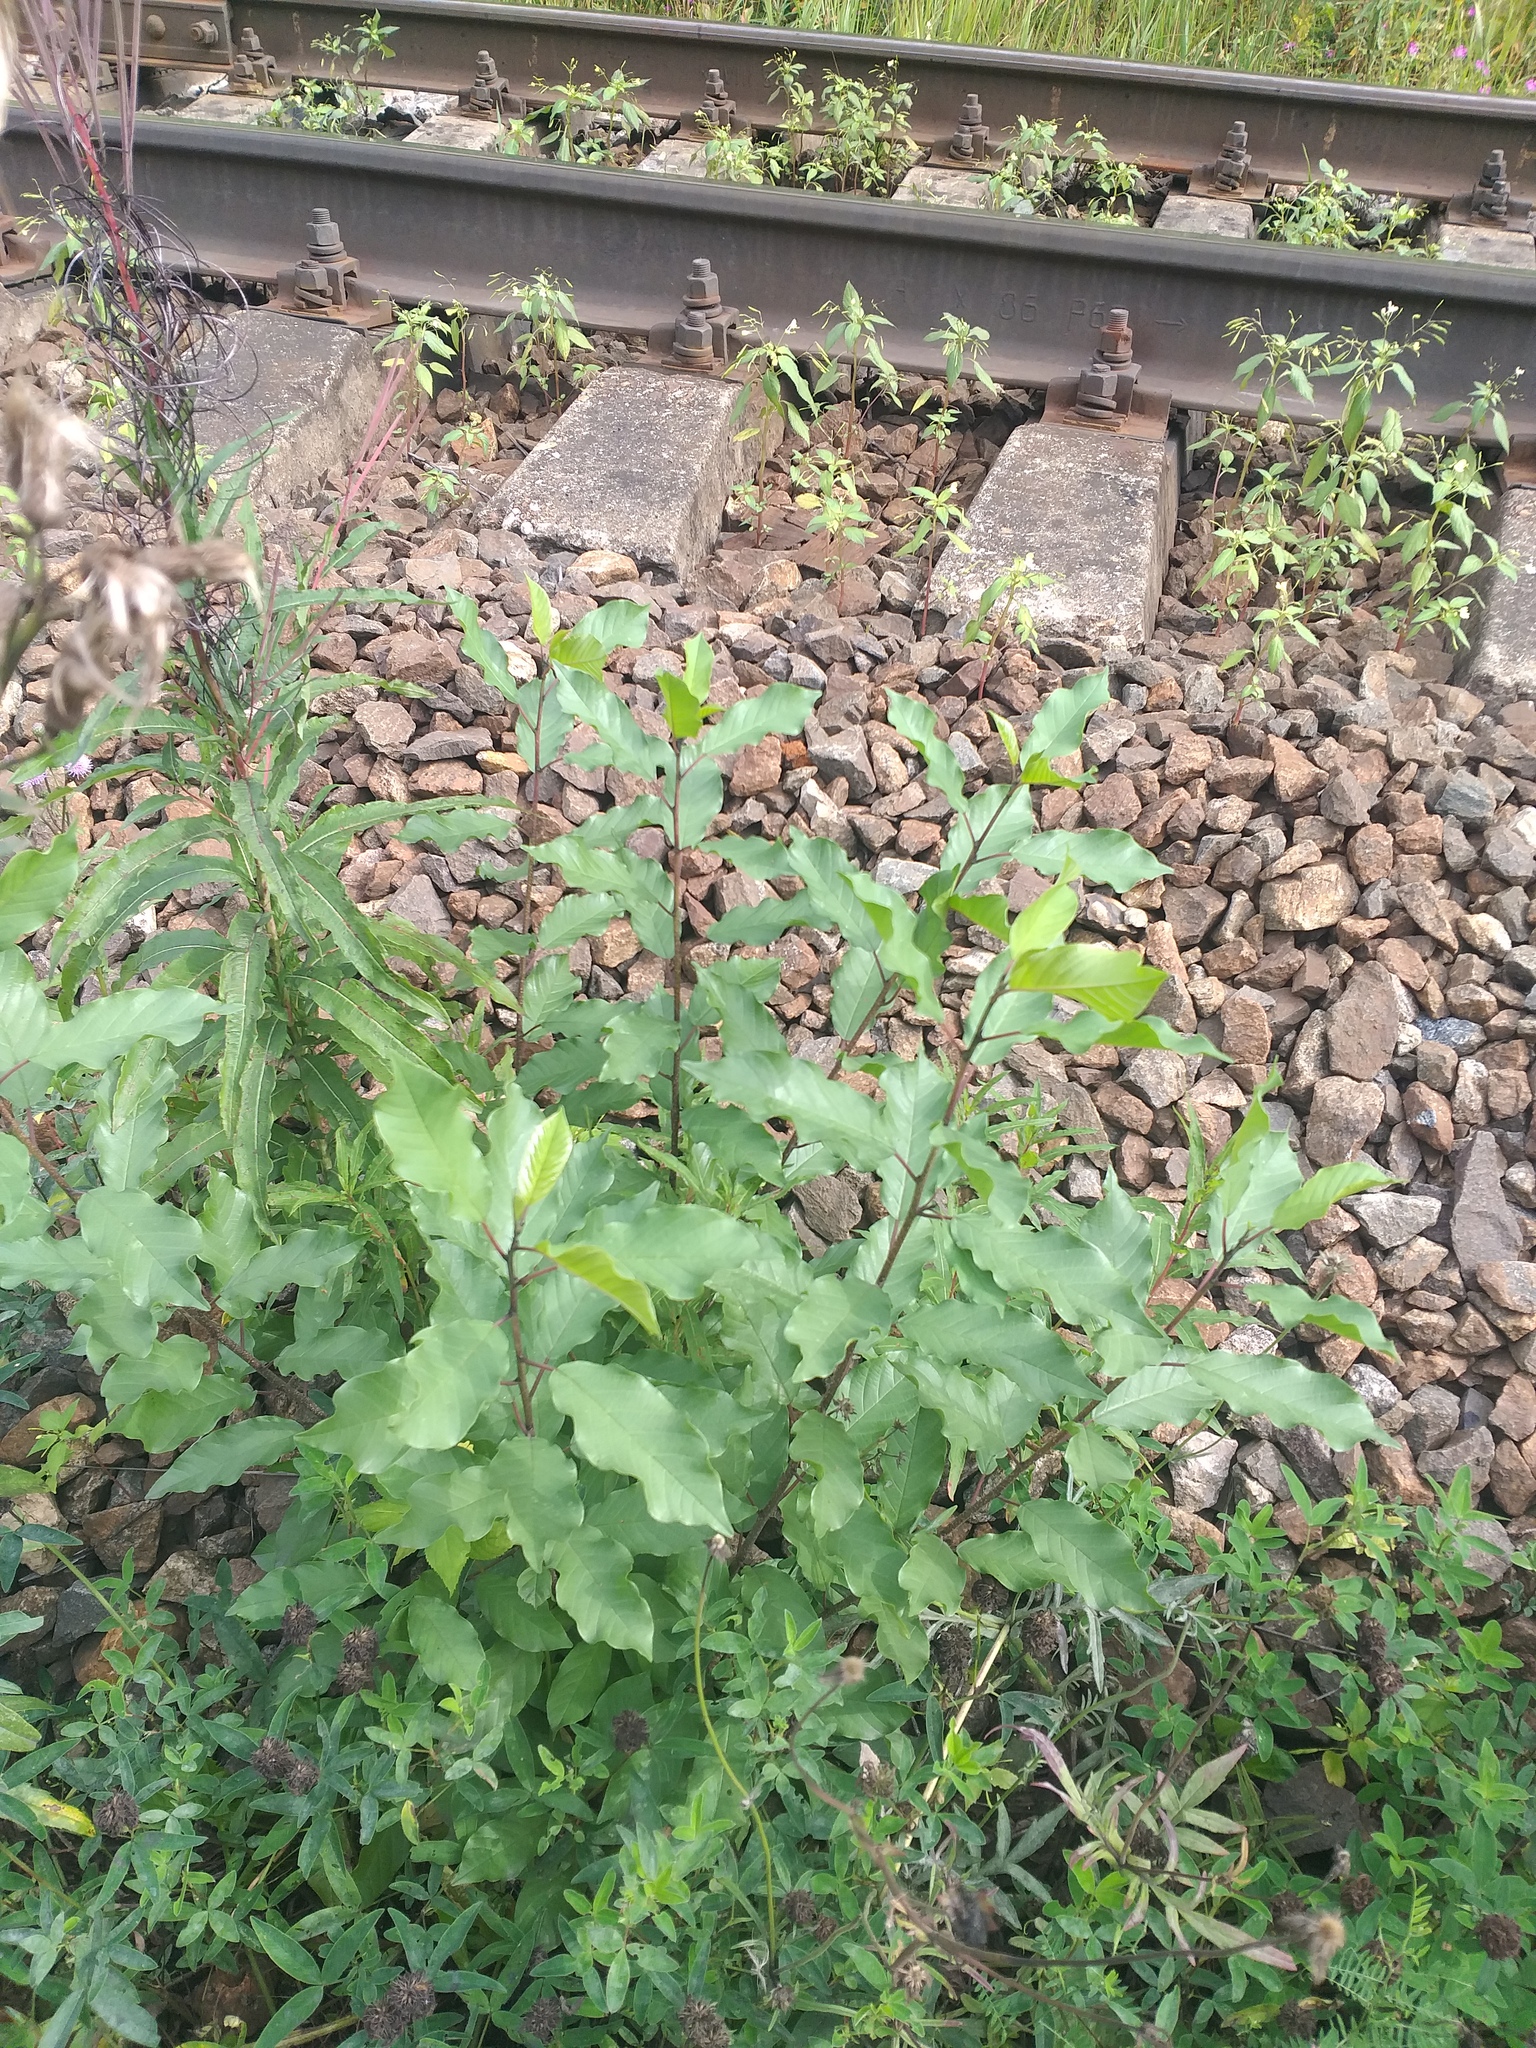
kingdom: Plantae
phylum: Tracheophyta
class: Magnoliopsida
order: Rosales
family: Rhamnaceae
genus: Frangula
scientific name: Frangula alnus
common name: Alder buckthorn
